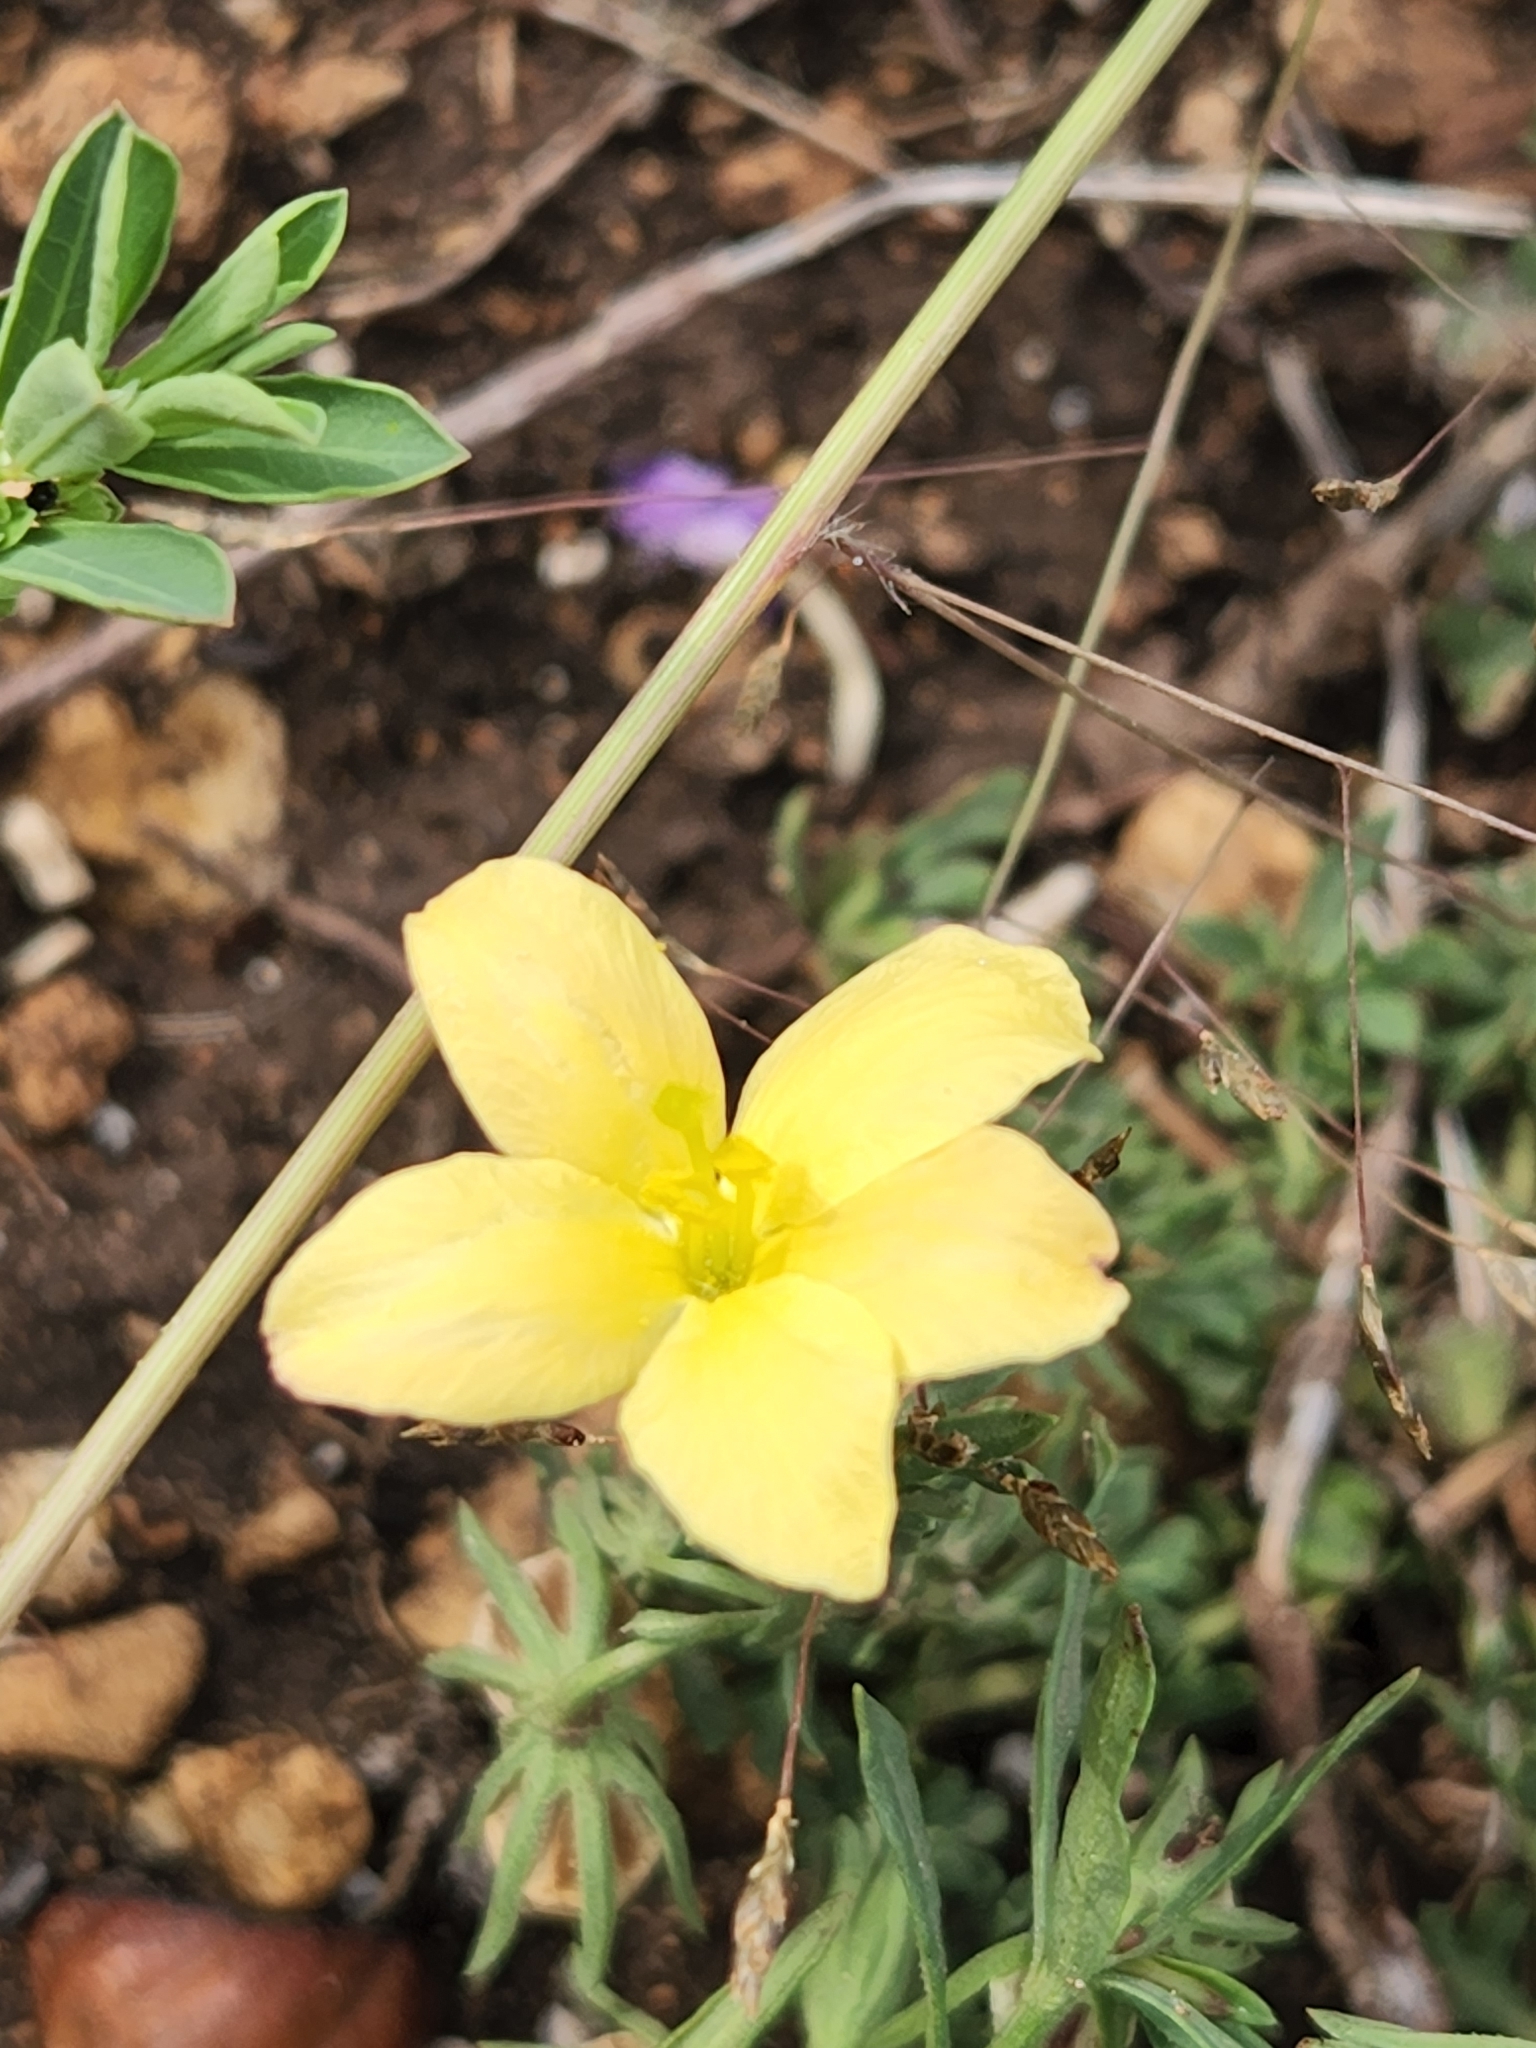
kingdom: Plantae
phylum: Tracheophyta
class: Magnoliopsida
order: Lamiales
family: Oleaceae
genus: Menodora
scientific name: Menodora heterophylla
